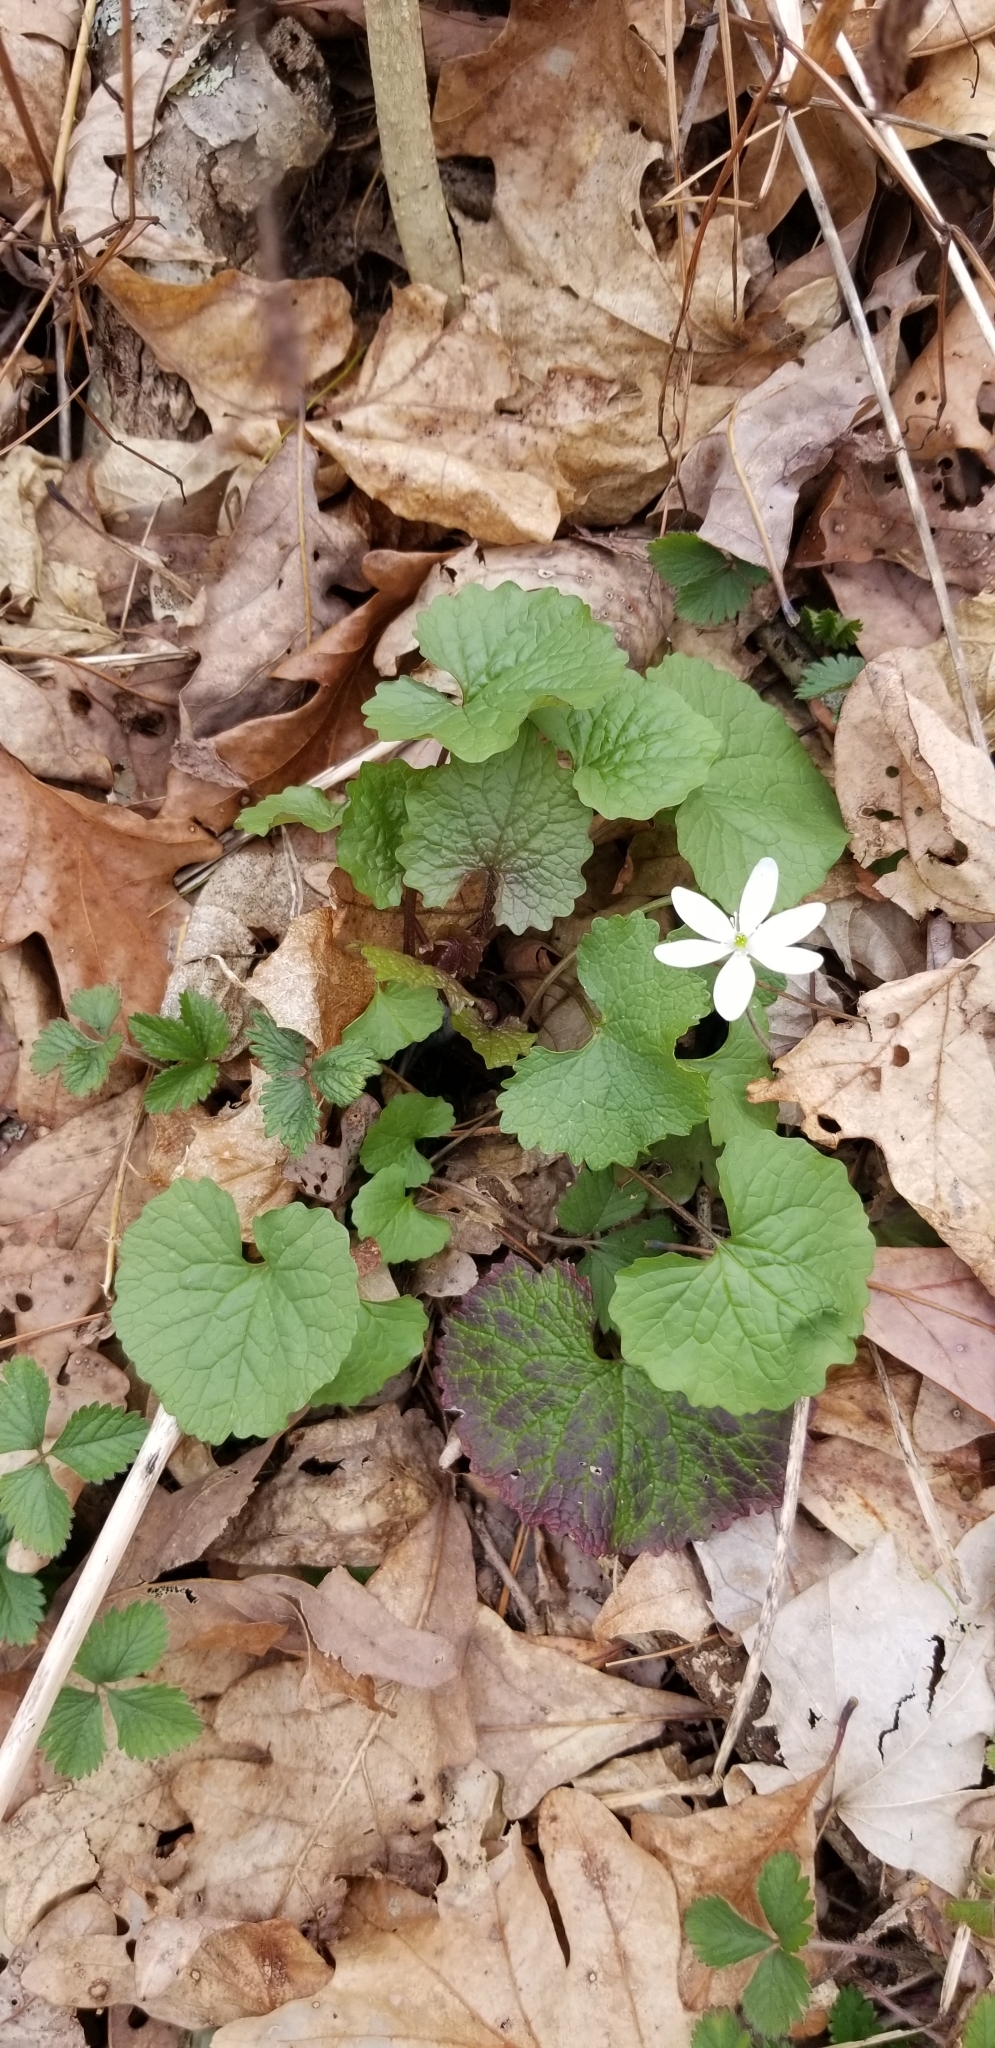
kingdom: Plantae
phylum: Tracheophyta
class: Magnoliopsida
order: Brassicales
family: Brassicaceae
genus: Alliaria
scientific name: Alliaria petiolata
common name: Garlic mustard
